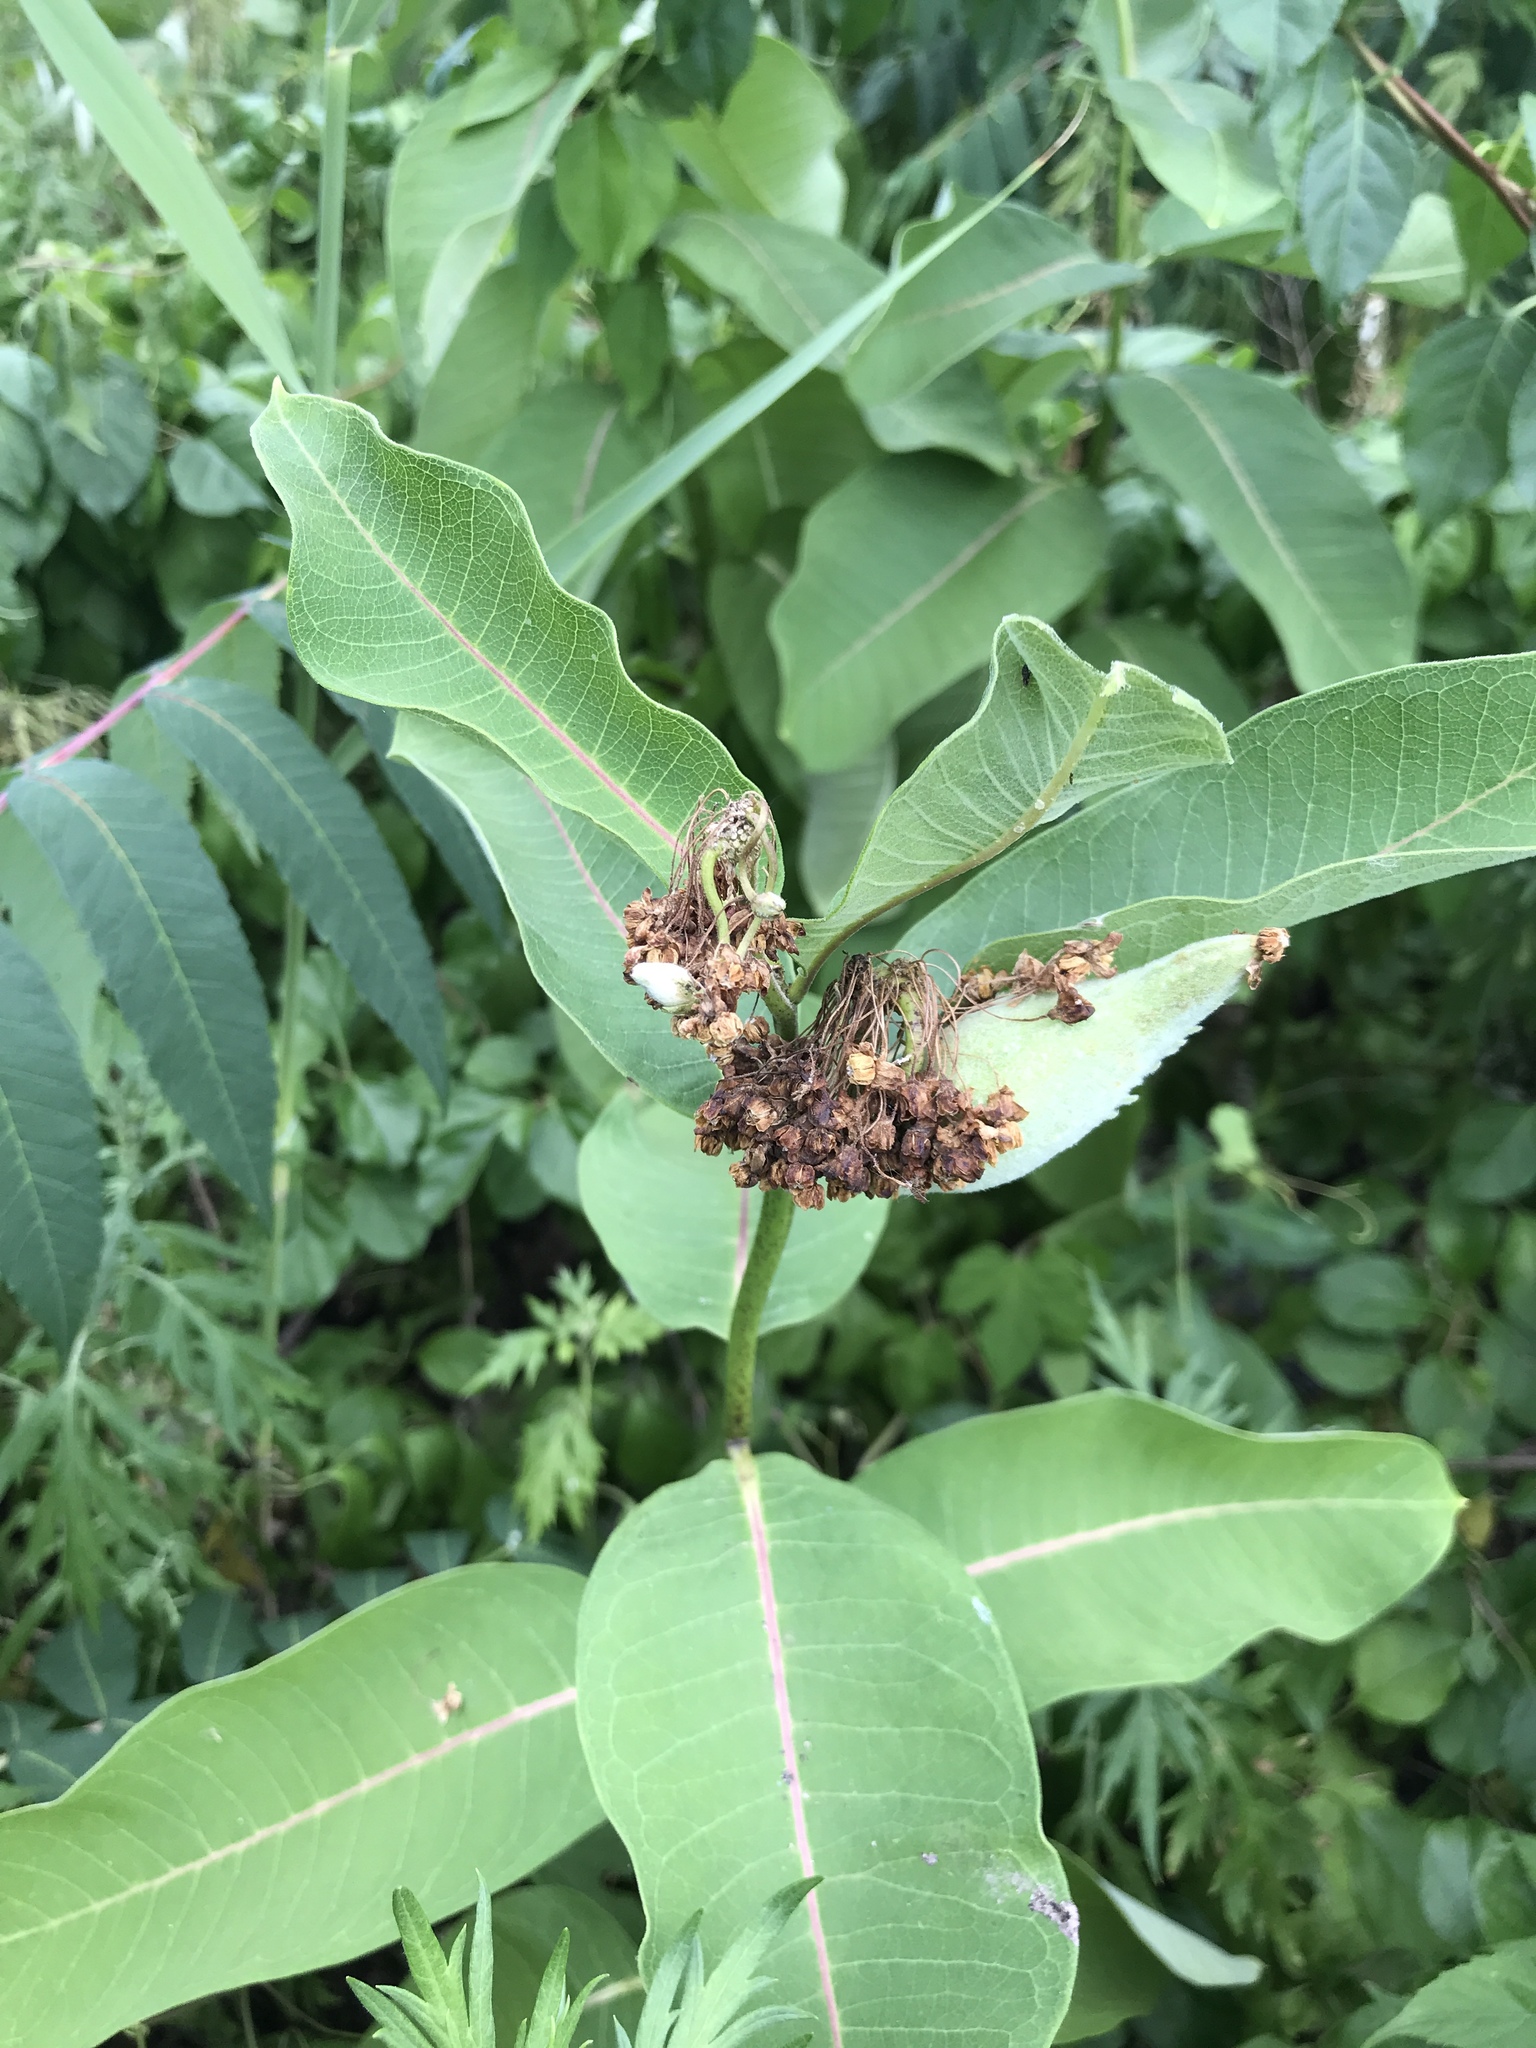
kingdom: Plantae
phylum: Tracheophyta
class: Magnoliopsida
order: Gentianales
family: Apocynaceae
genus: Asclepias
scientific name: Asclepias syriaca
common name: Common milkweed
